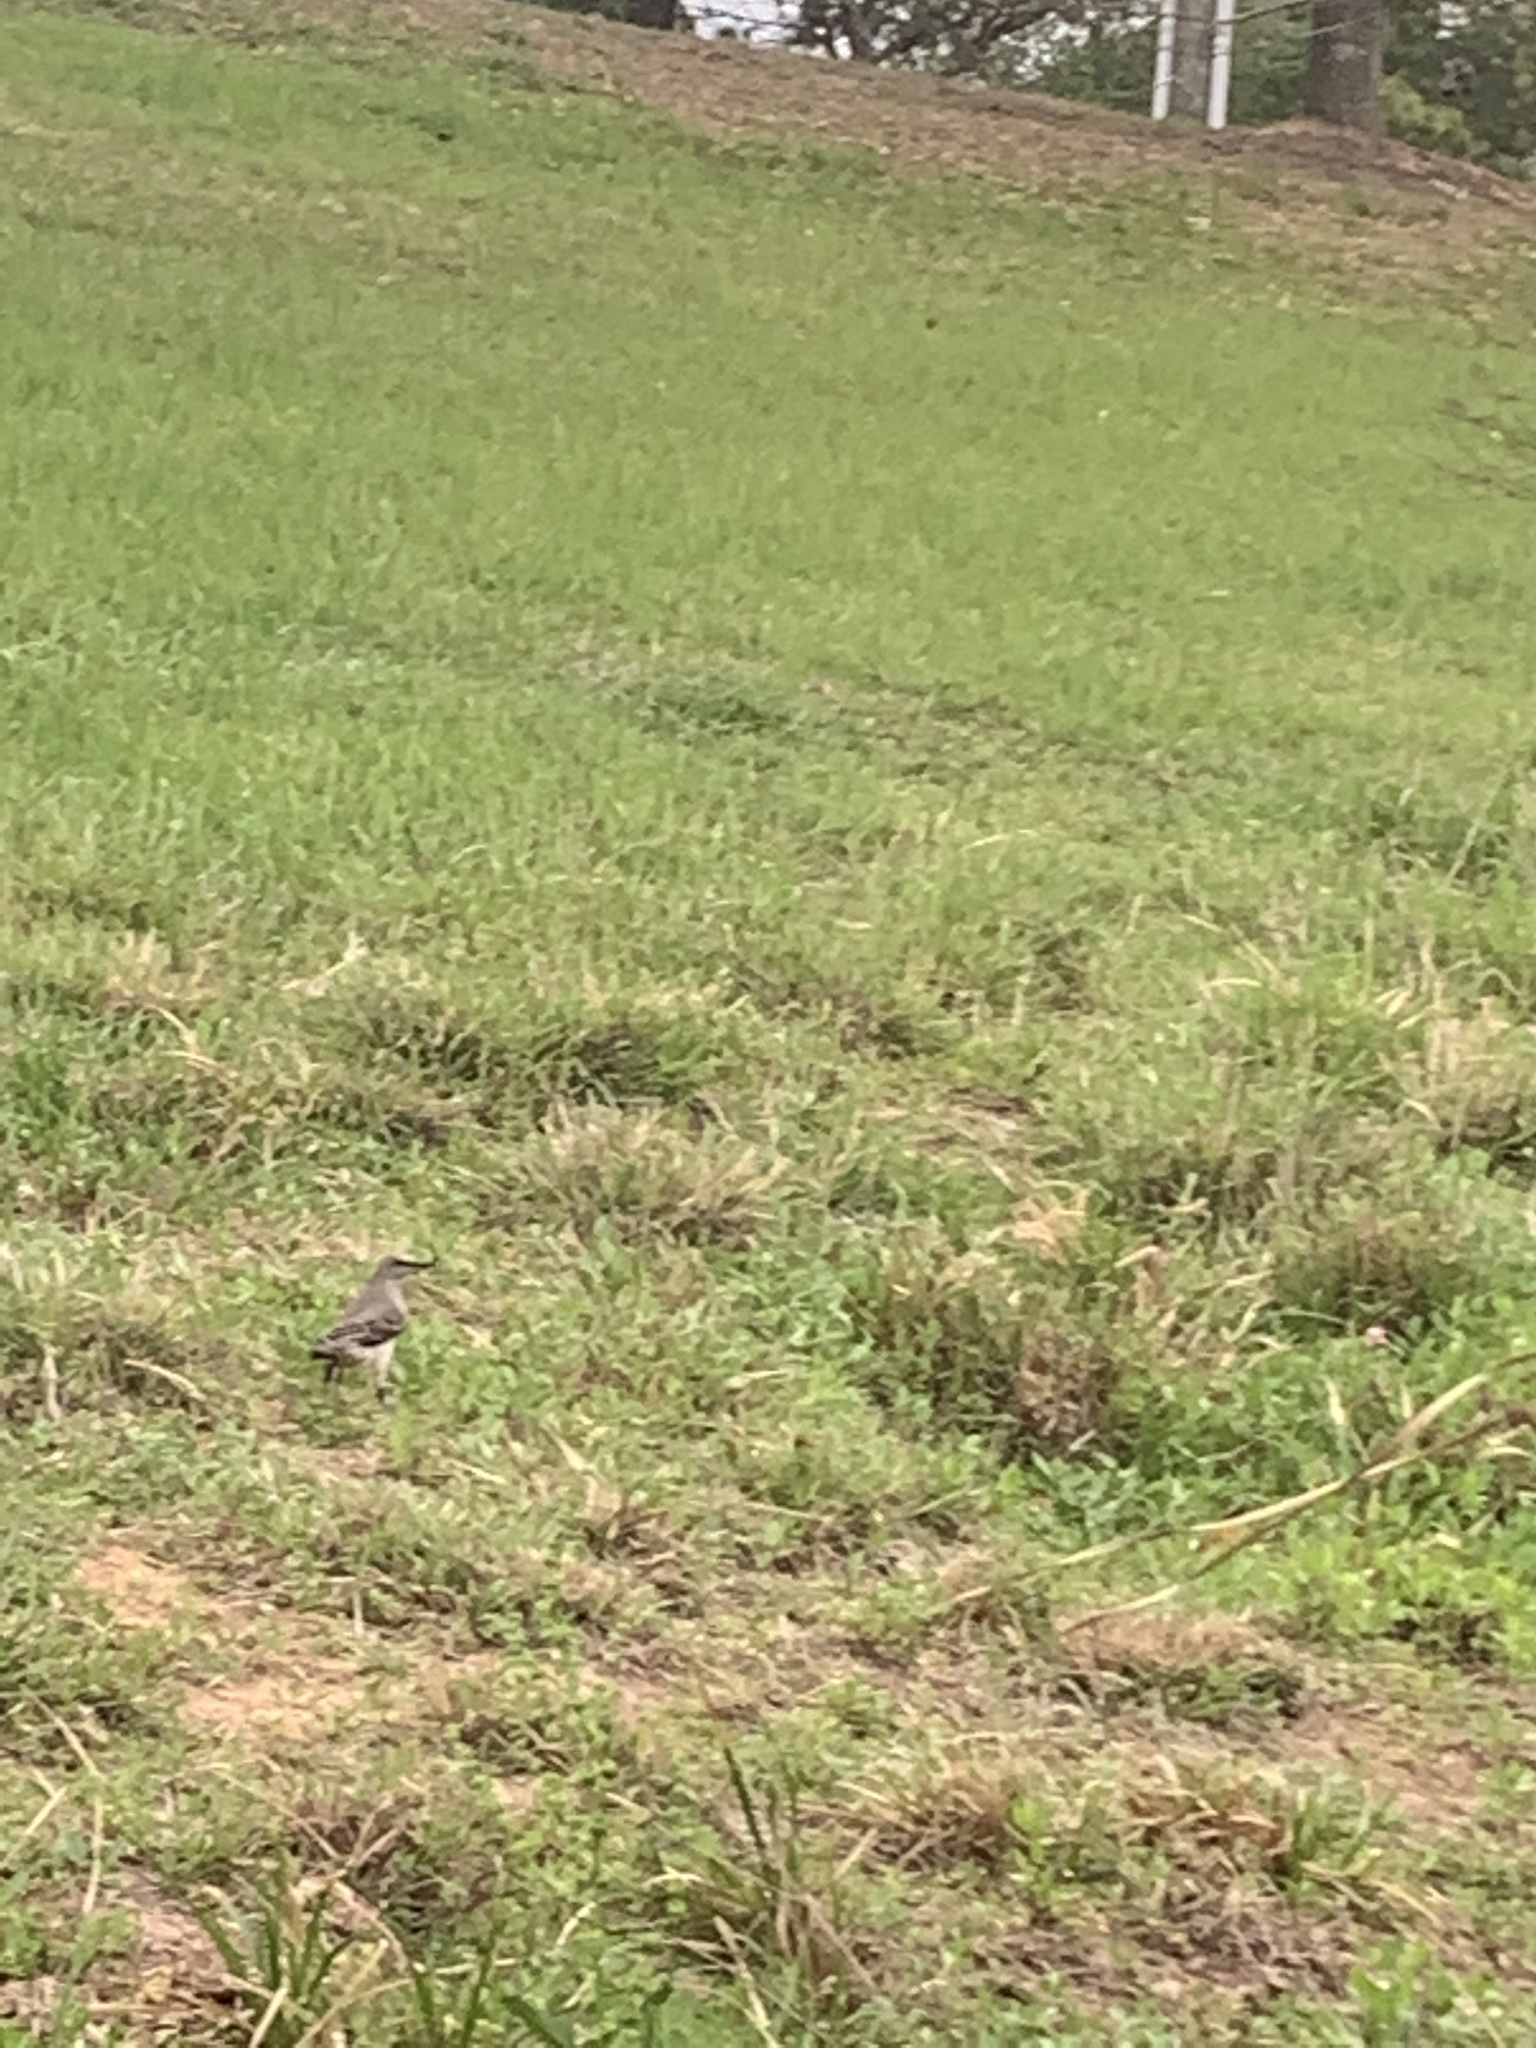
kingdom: Animalia
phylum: Chordata
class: Aves
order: Passeriformes
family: Mimidae
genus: Mimus
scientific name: Mimus polyglottos
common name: Northern mockingbird
